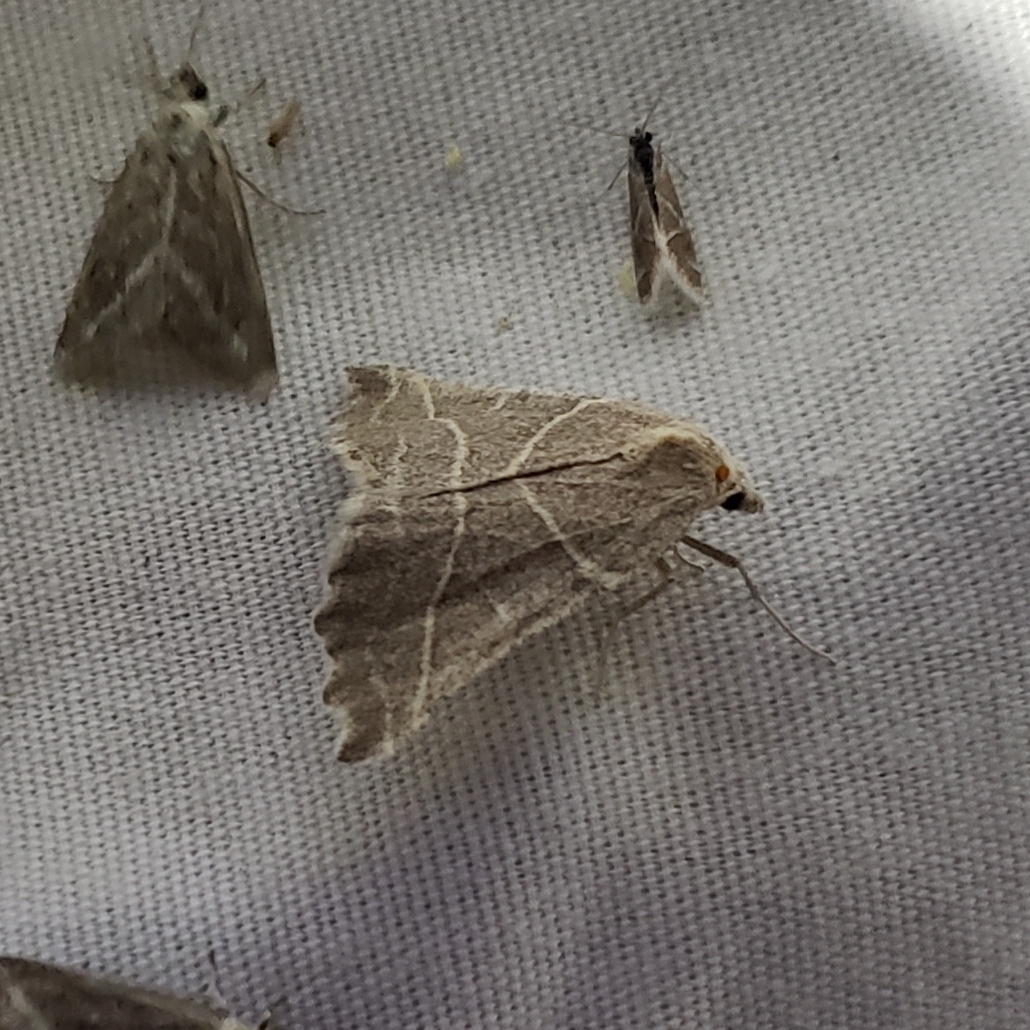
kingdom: Animalia
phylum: Arthropoda
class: Insecta
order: Lepidoptera
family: Geometridae
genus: Plataea
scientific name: Plataea calcaria
